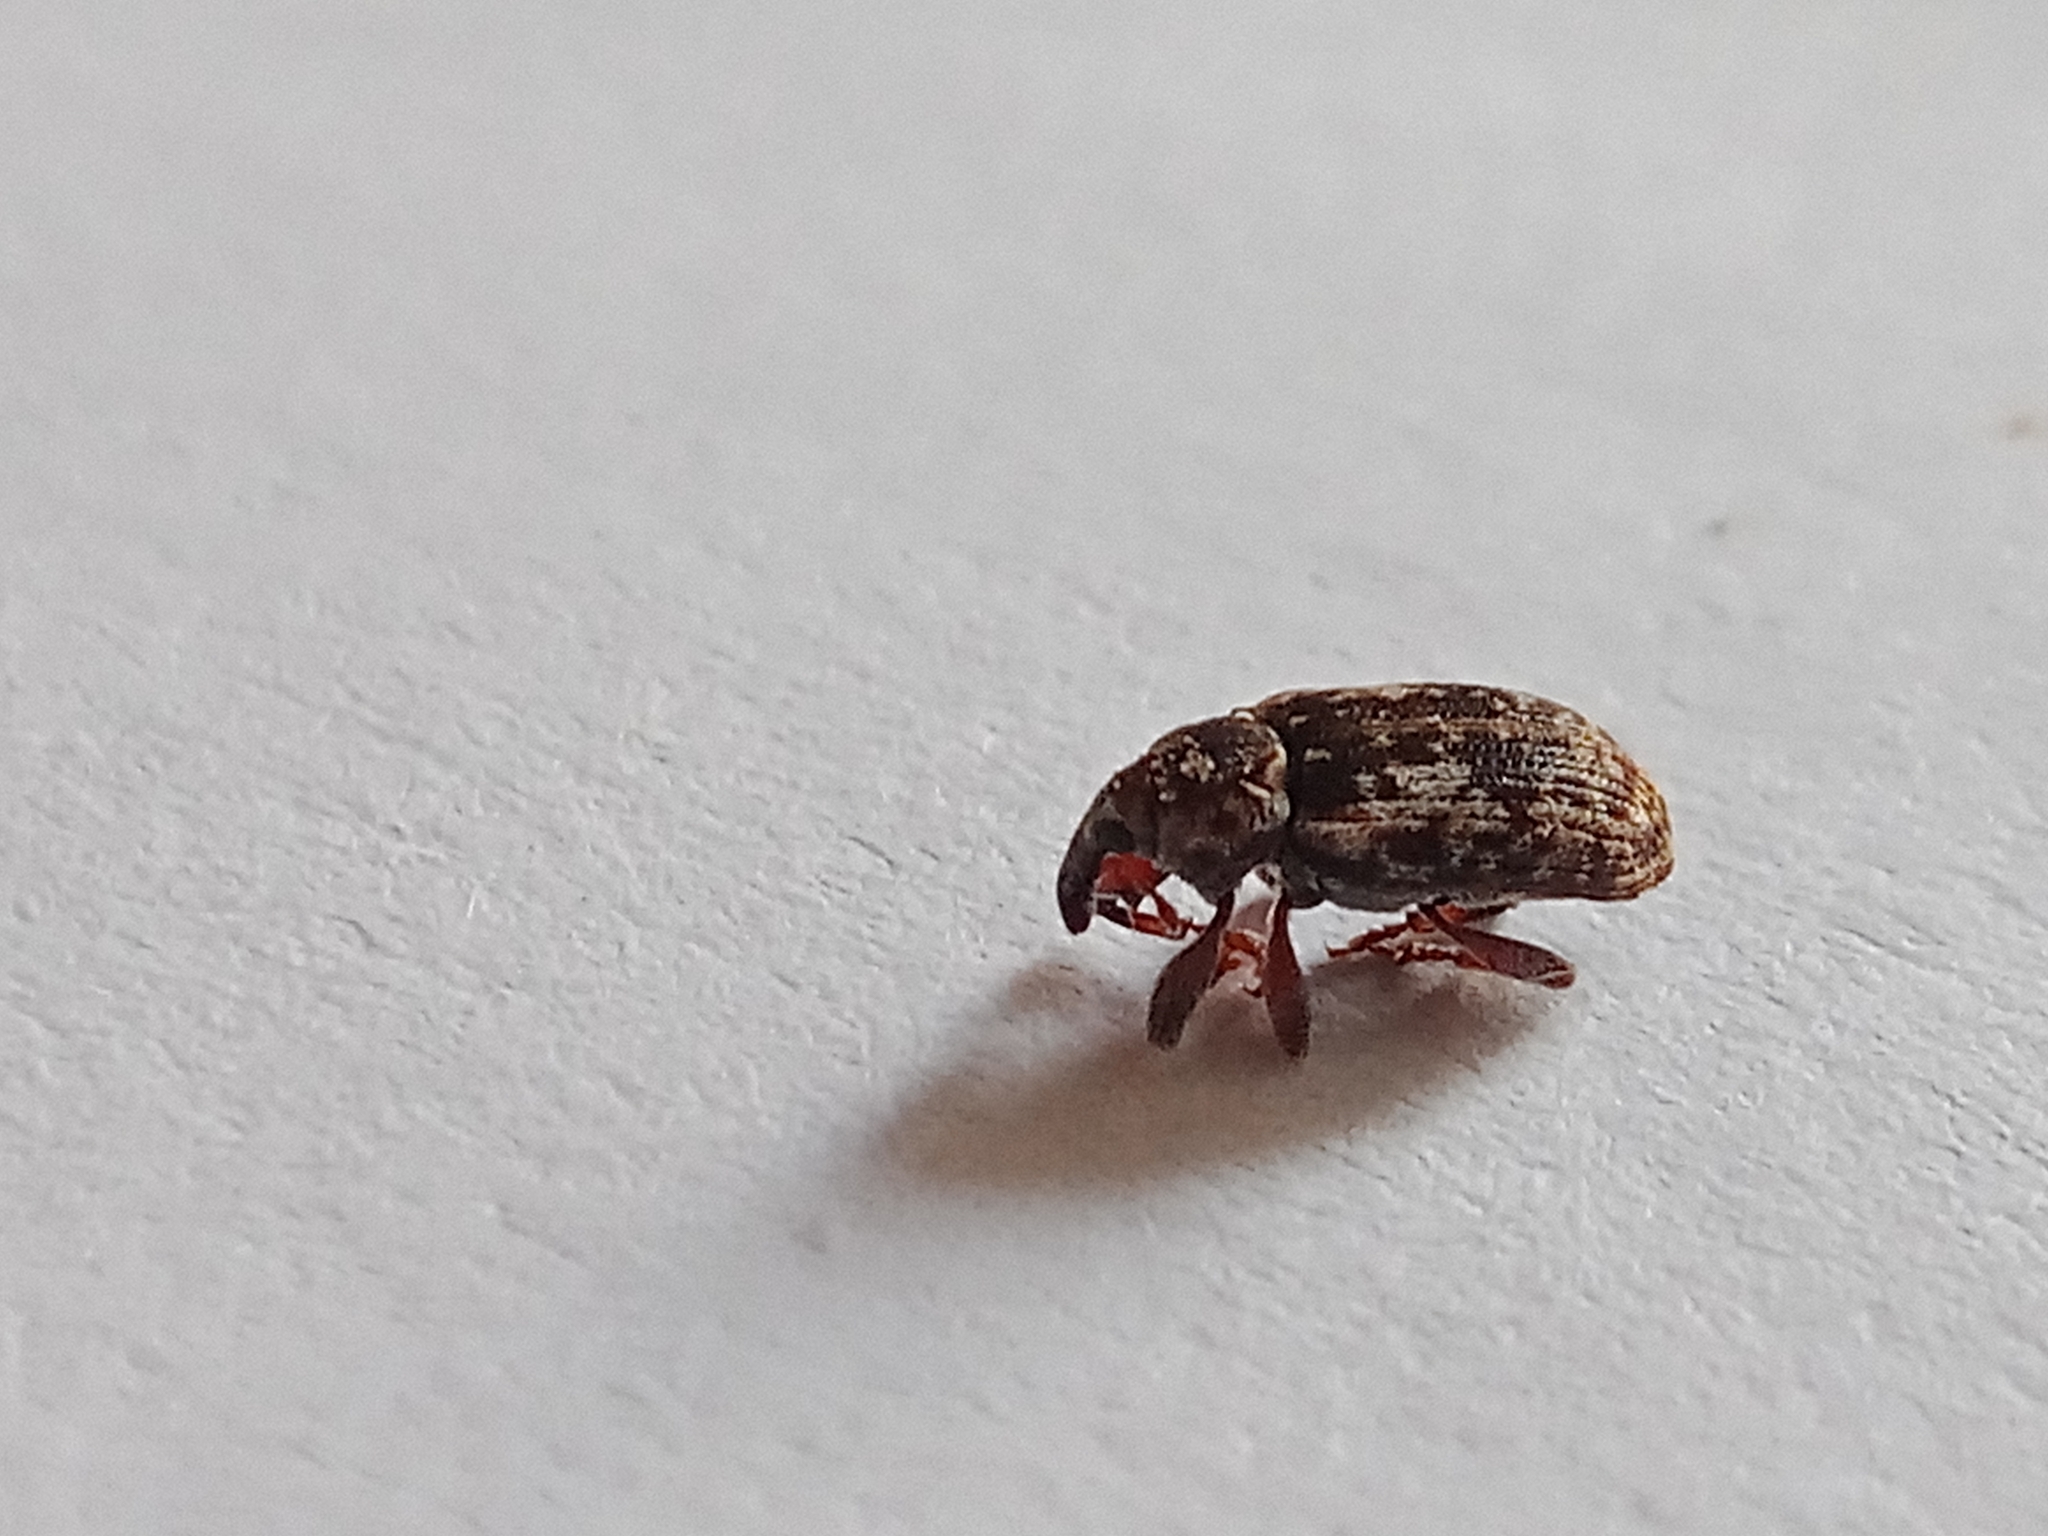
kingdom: Animalia
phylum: Arthropoda
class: Insecta
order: Coleoptera
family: Curculionidae
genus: Dorytomus
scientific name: Dorytomus ictor
